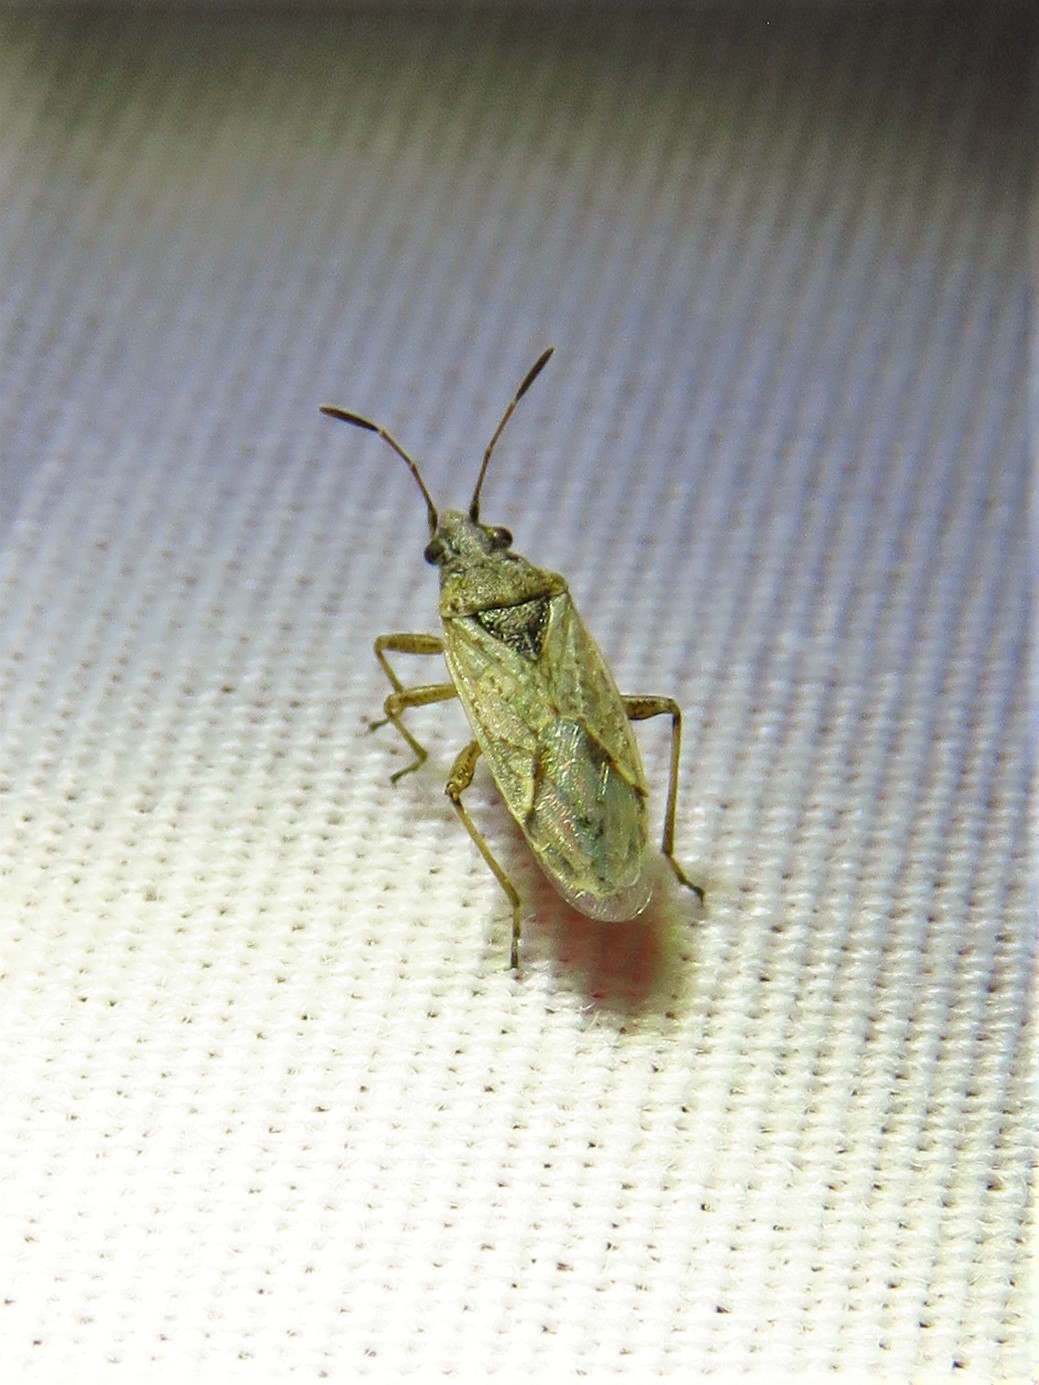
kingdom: Animalia
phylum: Arthropoda
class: Insecta
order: Hemiptera
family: Lygaeidae
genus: Xyonysius
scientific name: Xyonysius californicus
